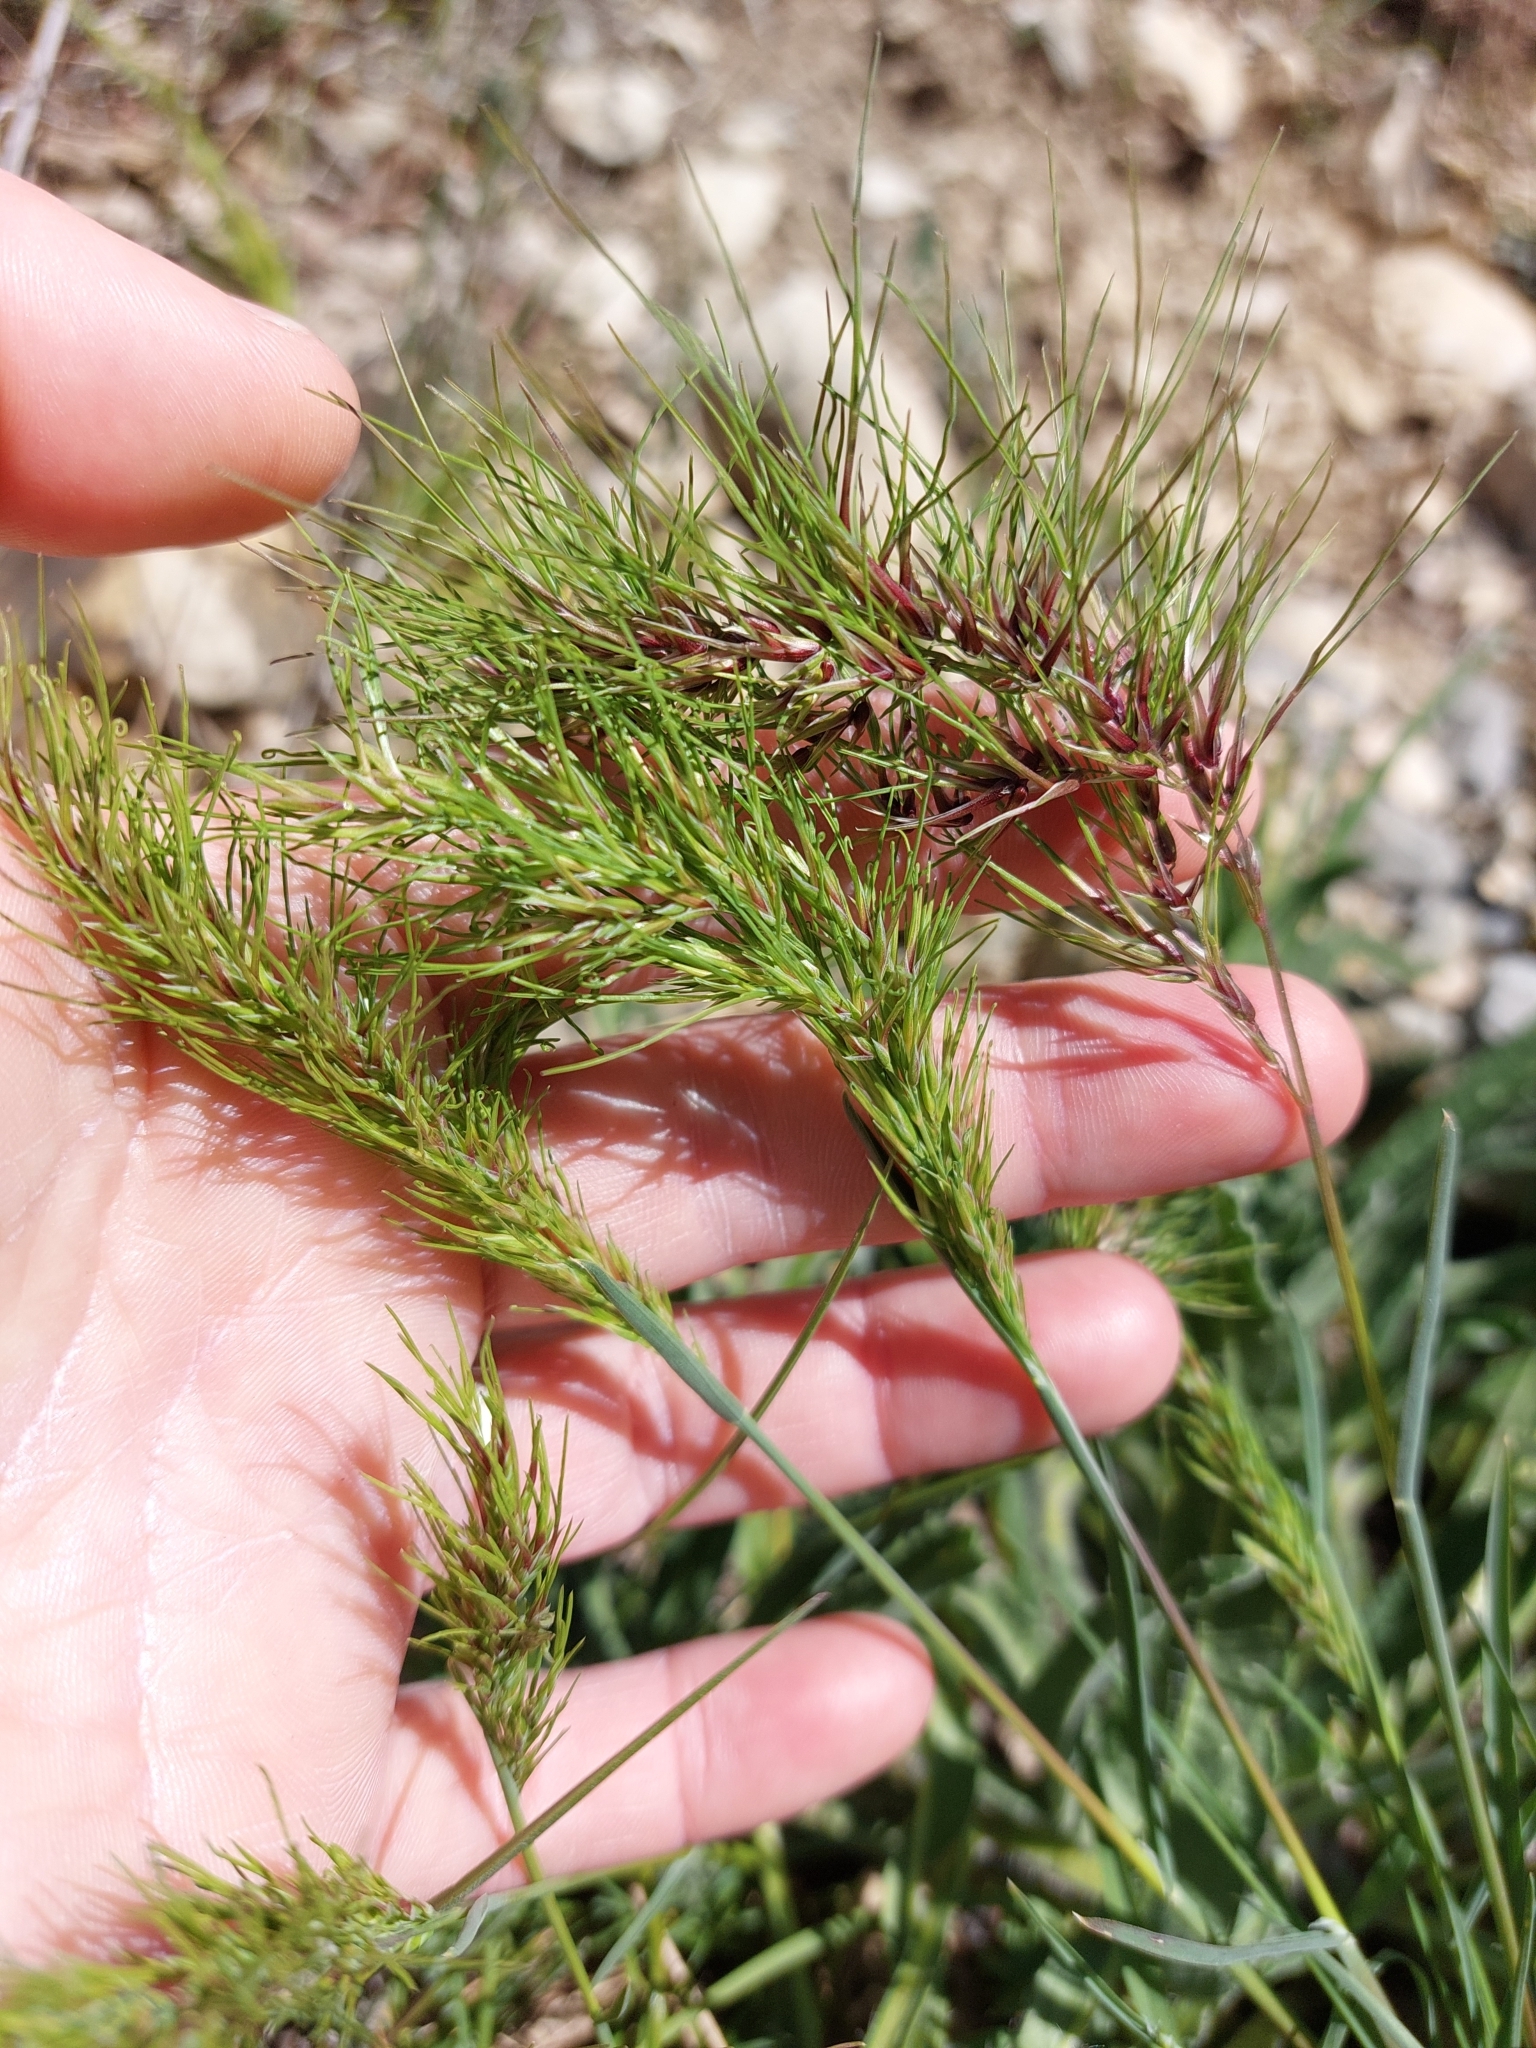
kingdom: Plantae
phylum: Tracheophyta
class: Liliopsida
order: Poales
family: Poaceae
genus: Poa
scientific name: Poa bulbosa
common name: Bulbous bluegrass
